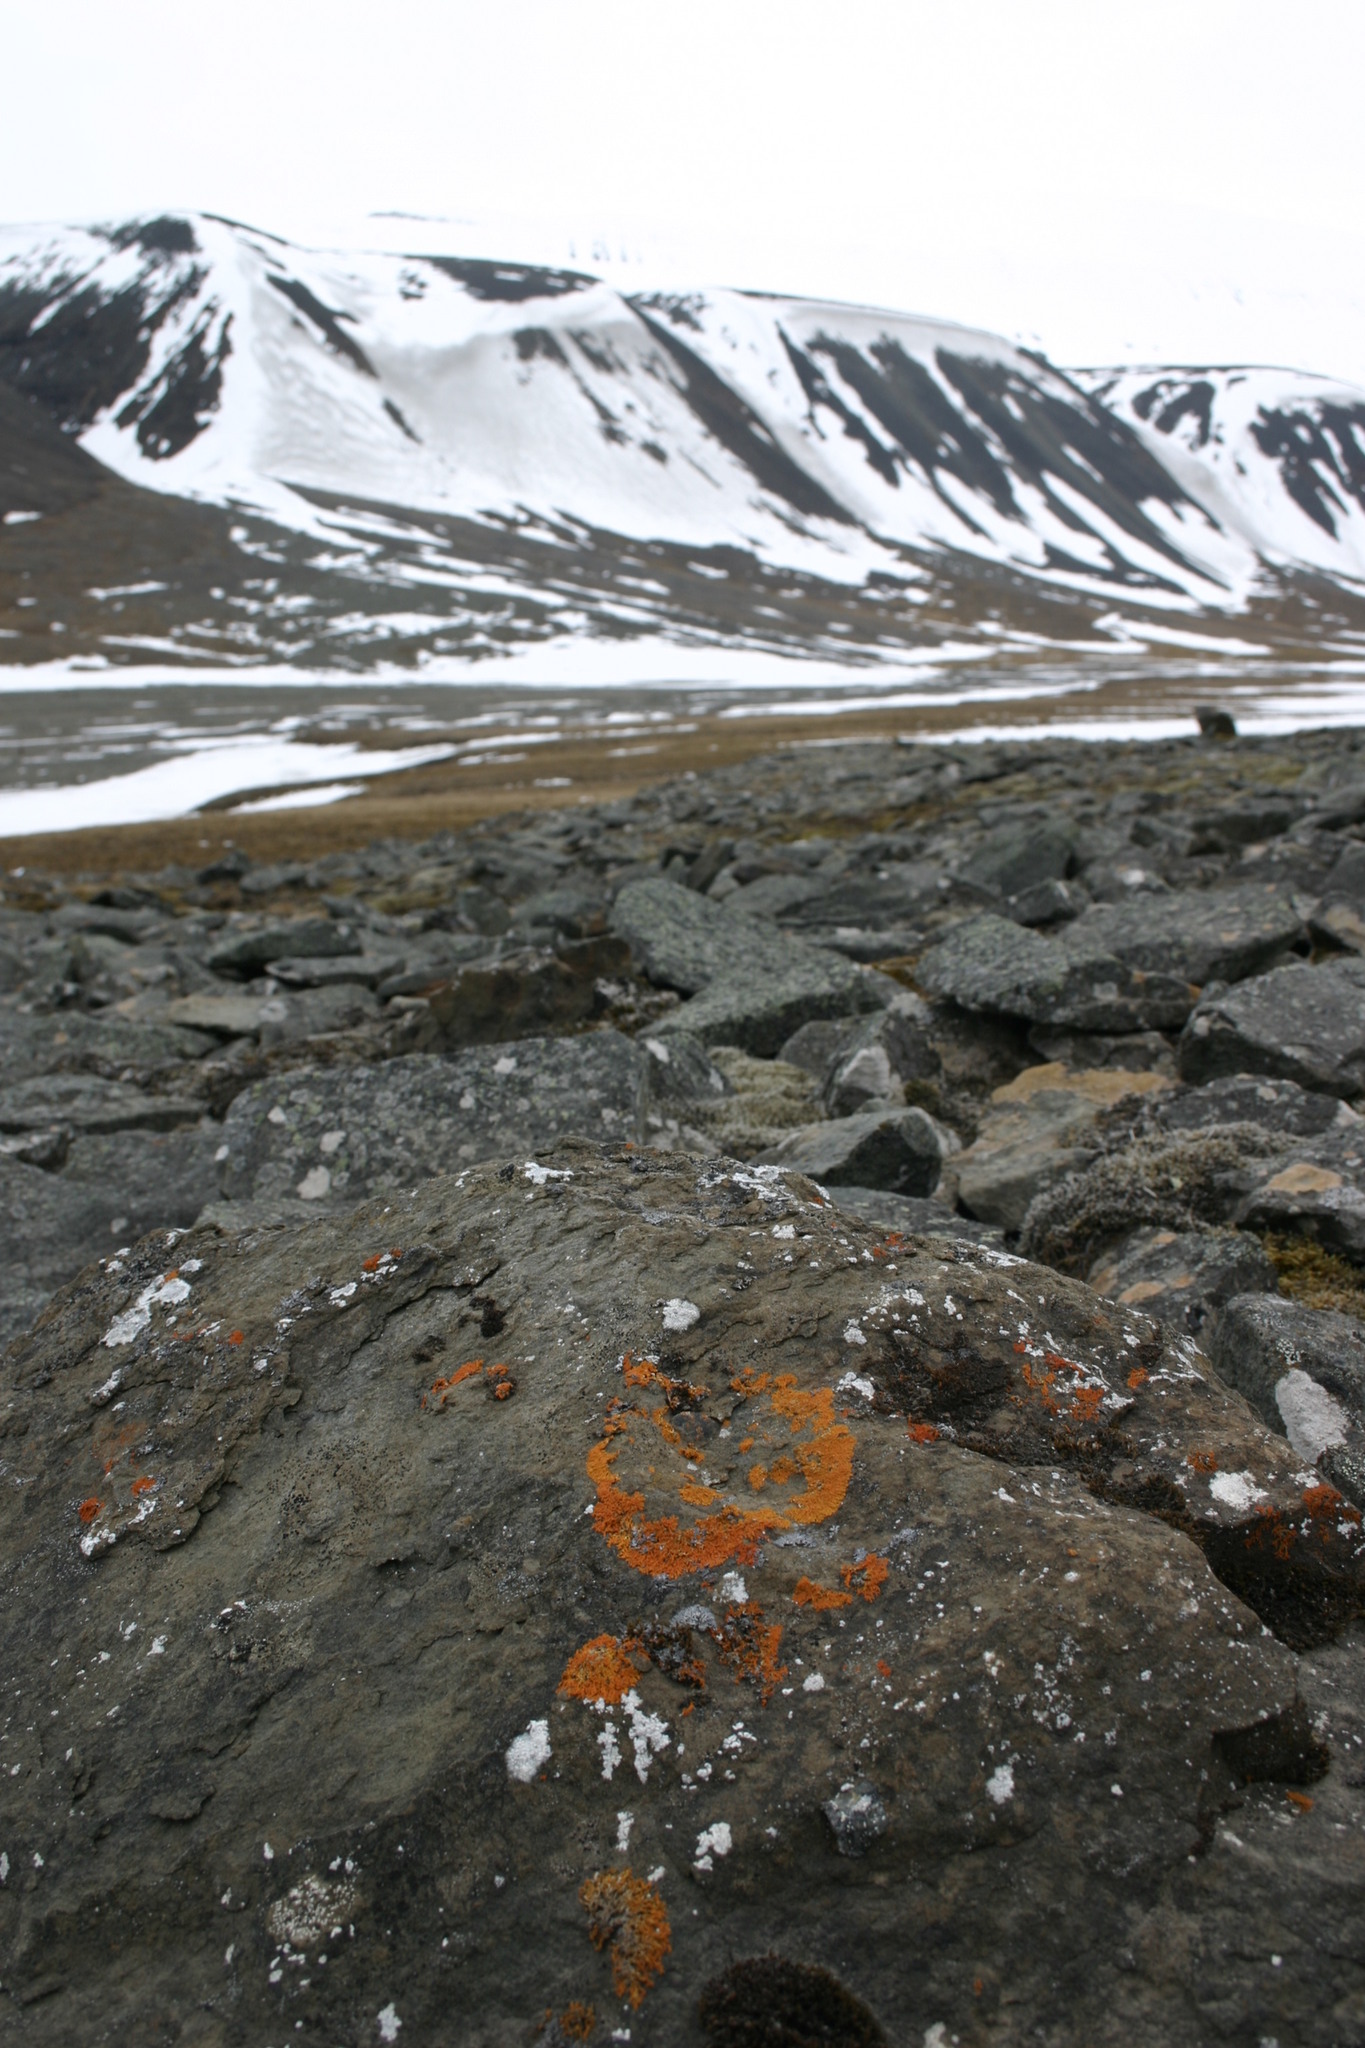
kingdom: Fungi
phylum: Ascomycota
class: Lecanoromycetes
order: Teloschistales
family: Teloschistaceae
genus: Xanthoria
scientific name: Xanthoria elegans
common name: Elegant sunburst lichen
